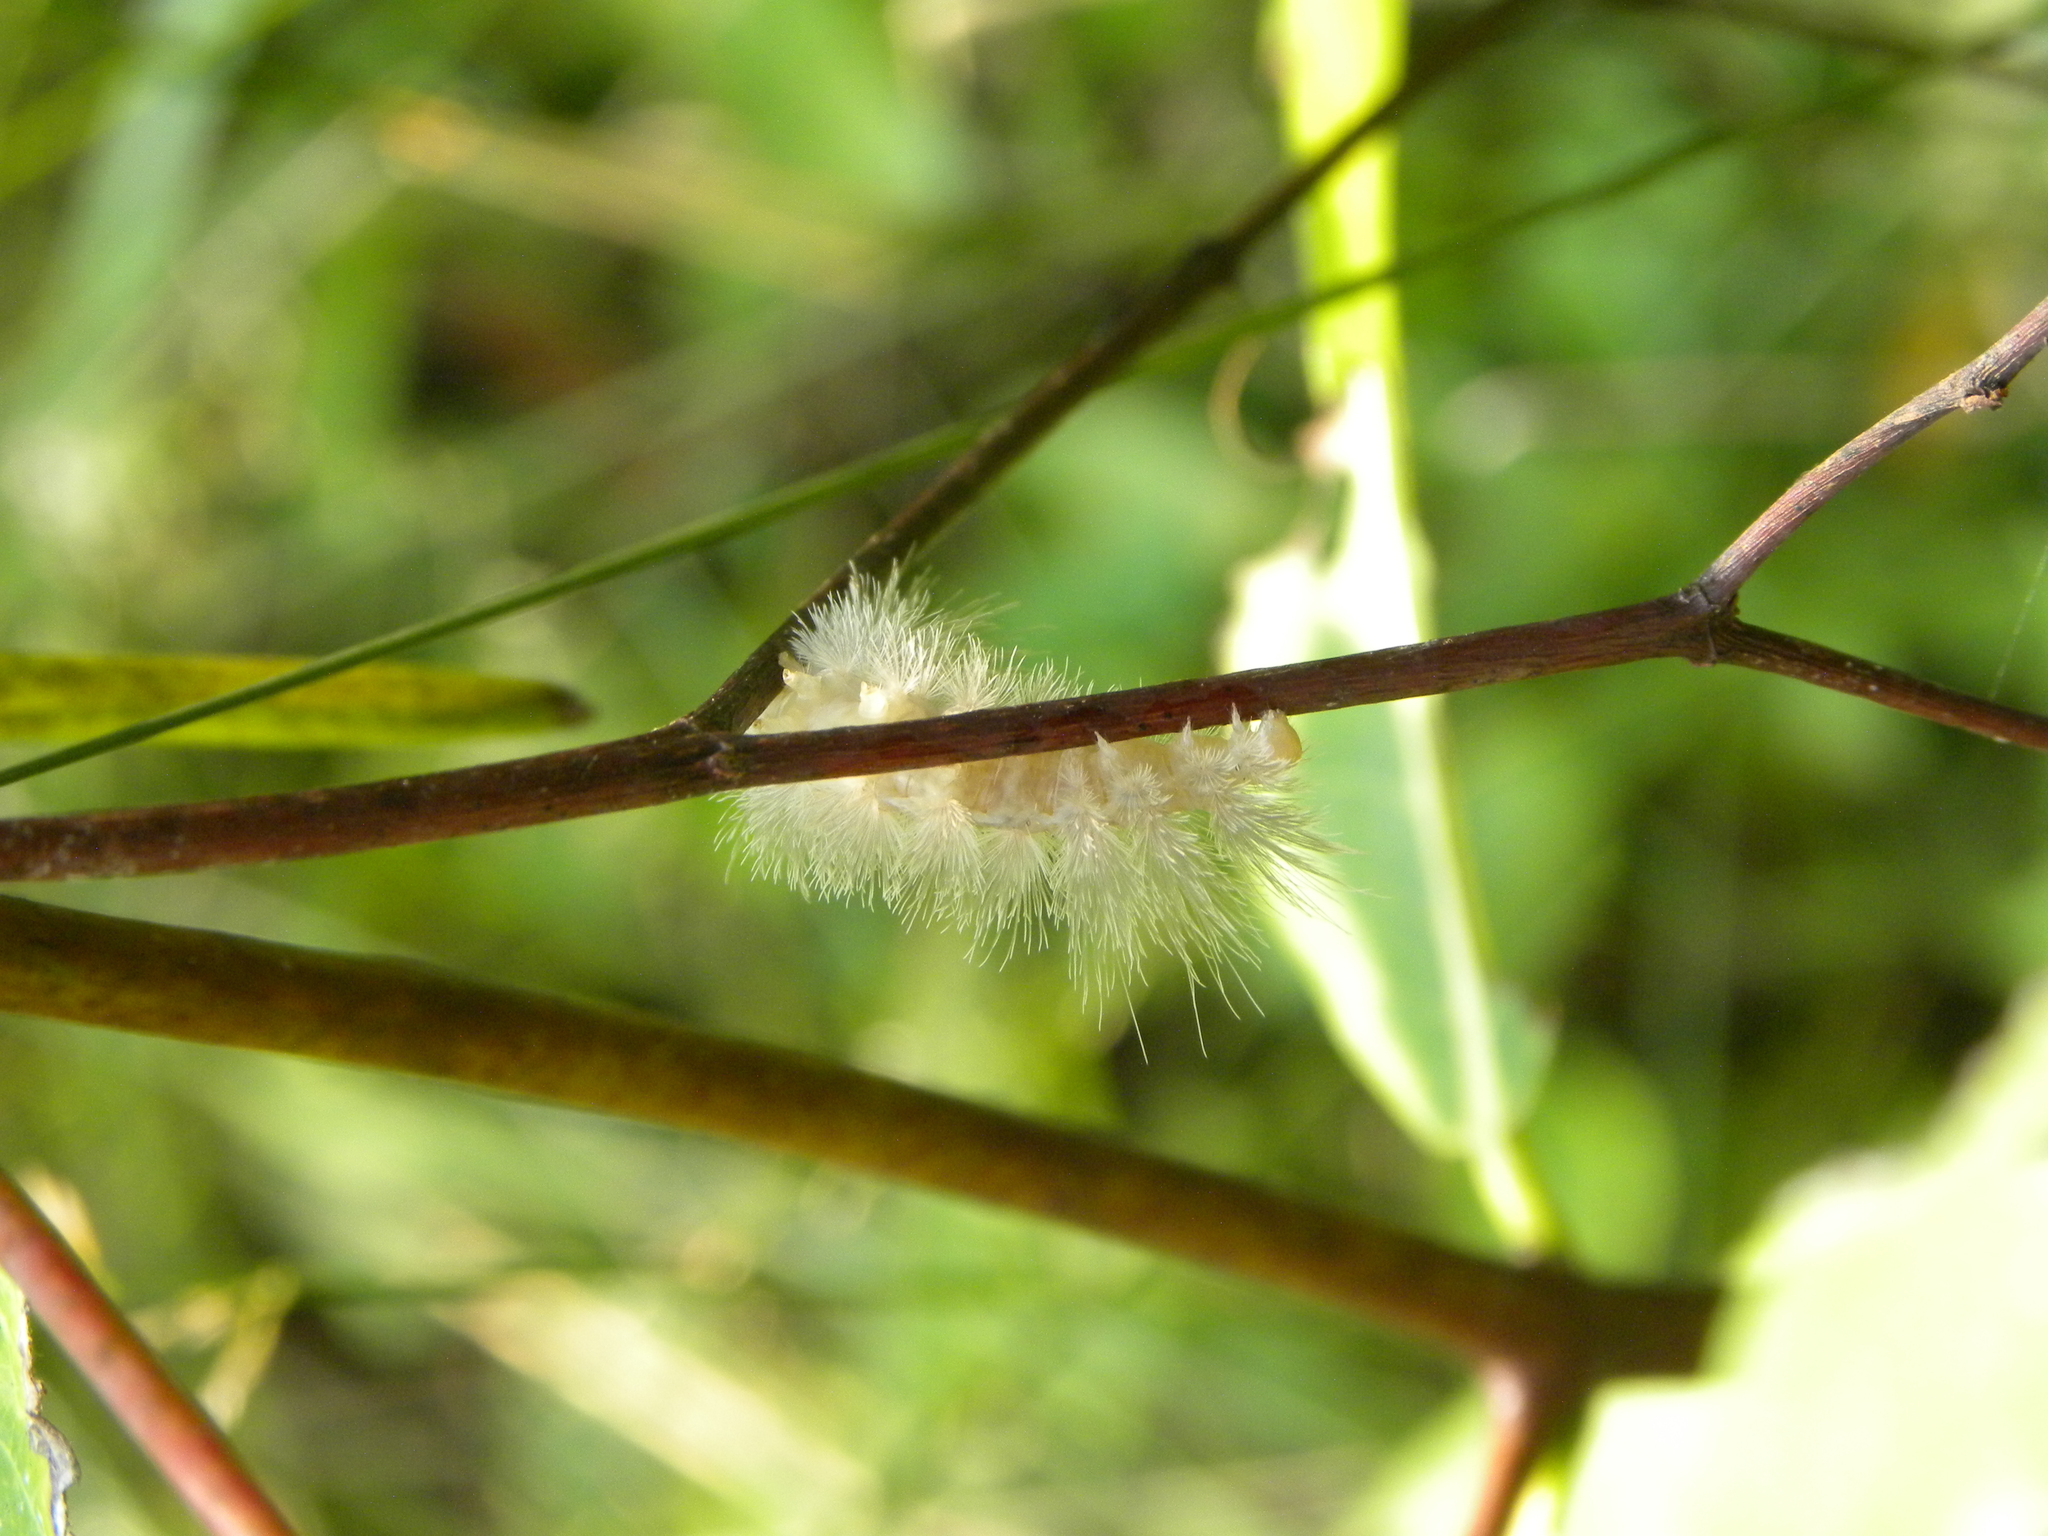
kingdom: Animalia
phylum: Arthropoda
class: Insecta
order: Lepidoptera
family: Erebidae
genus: Cycnia
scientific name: Cycnia tenera
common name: Delicate cycnia moth
